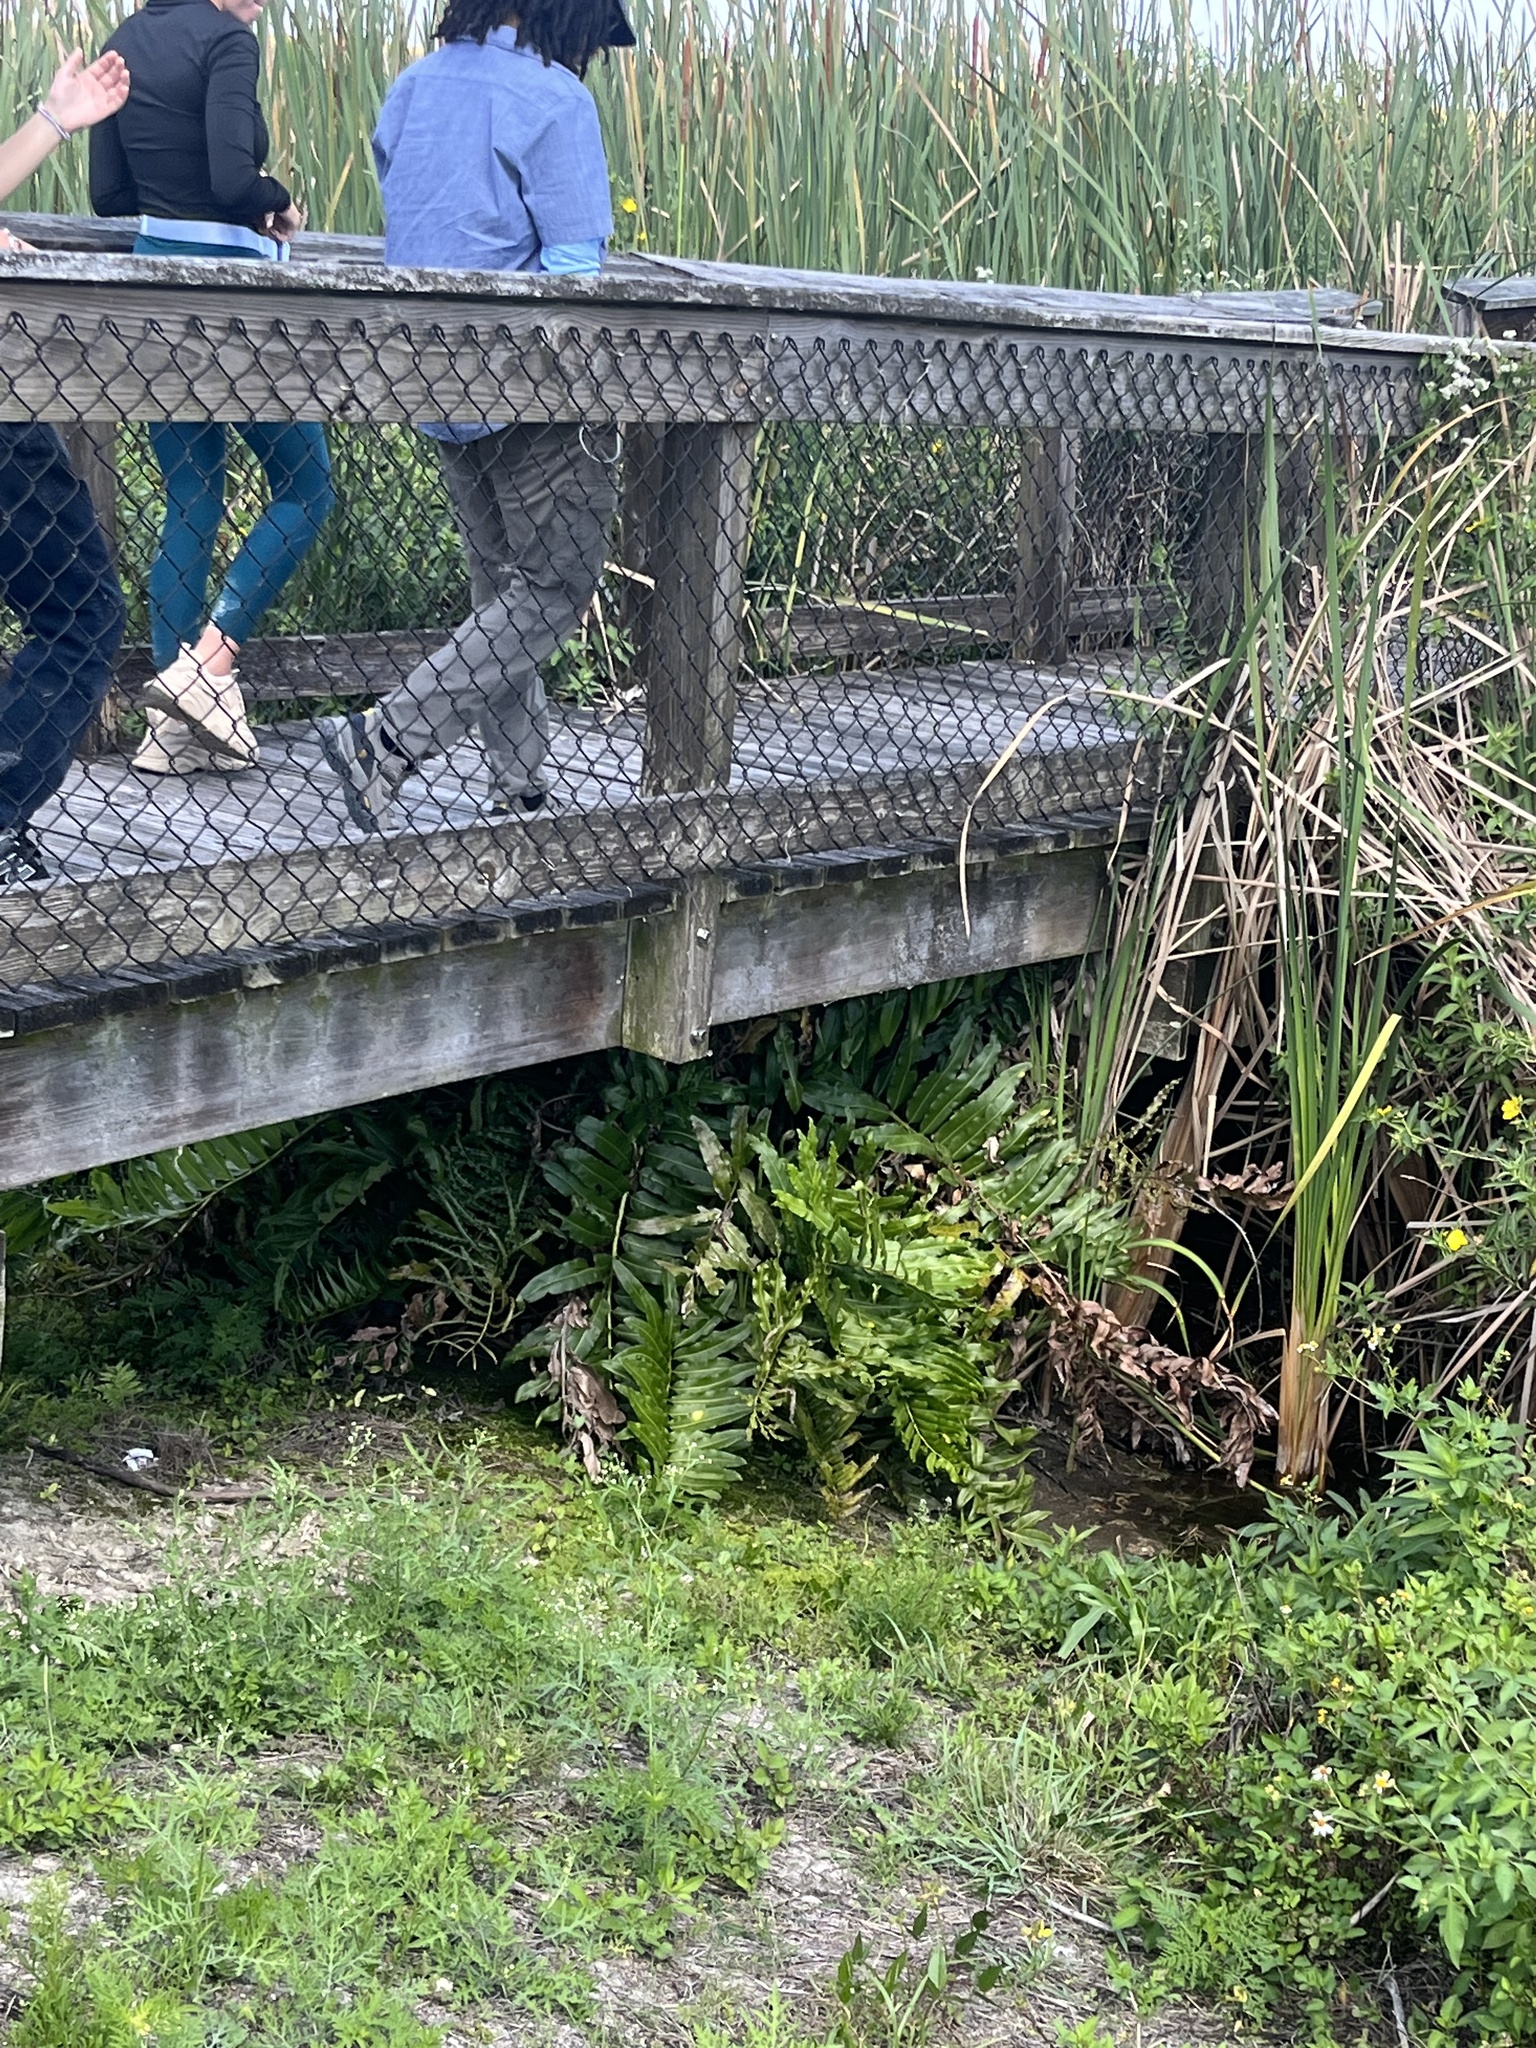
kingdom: Plantae
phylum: Tracheophyta
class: Polypodiopsida
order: Polypodiales
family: Pteridaceae
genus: Acrostichum
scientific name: Acrostichum danaeifolium
